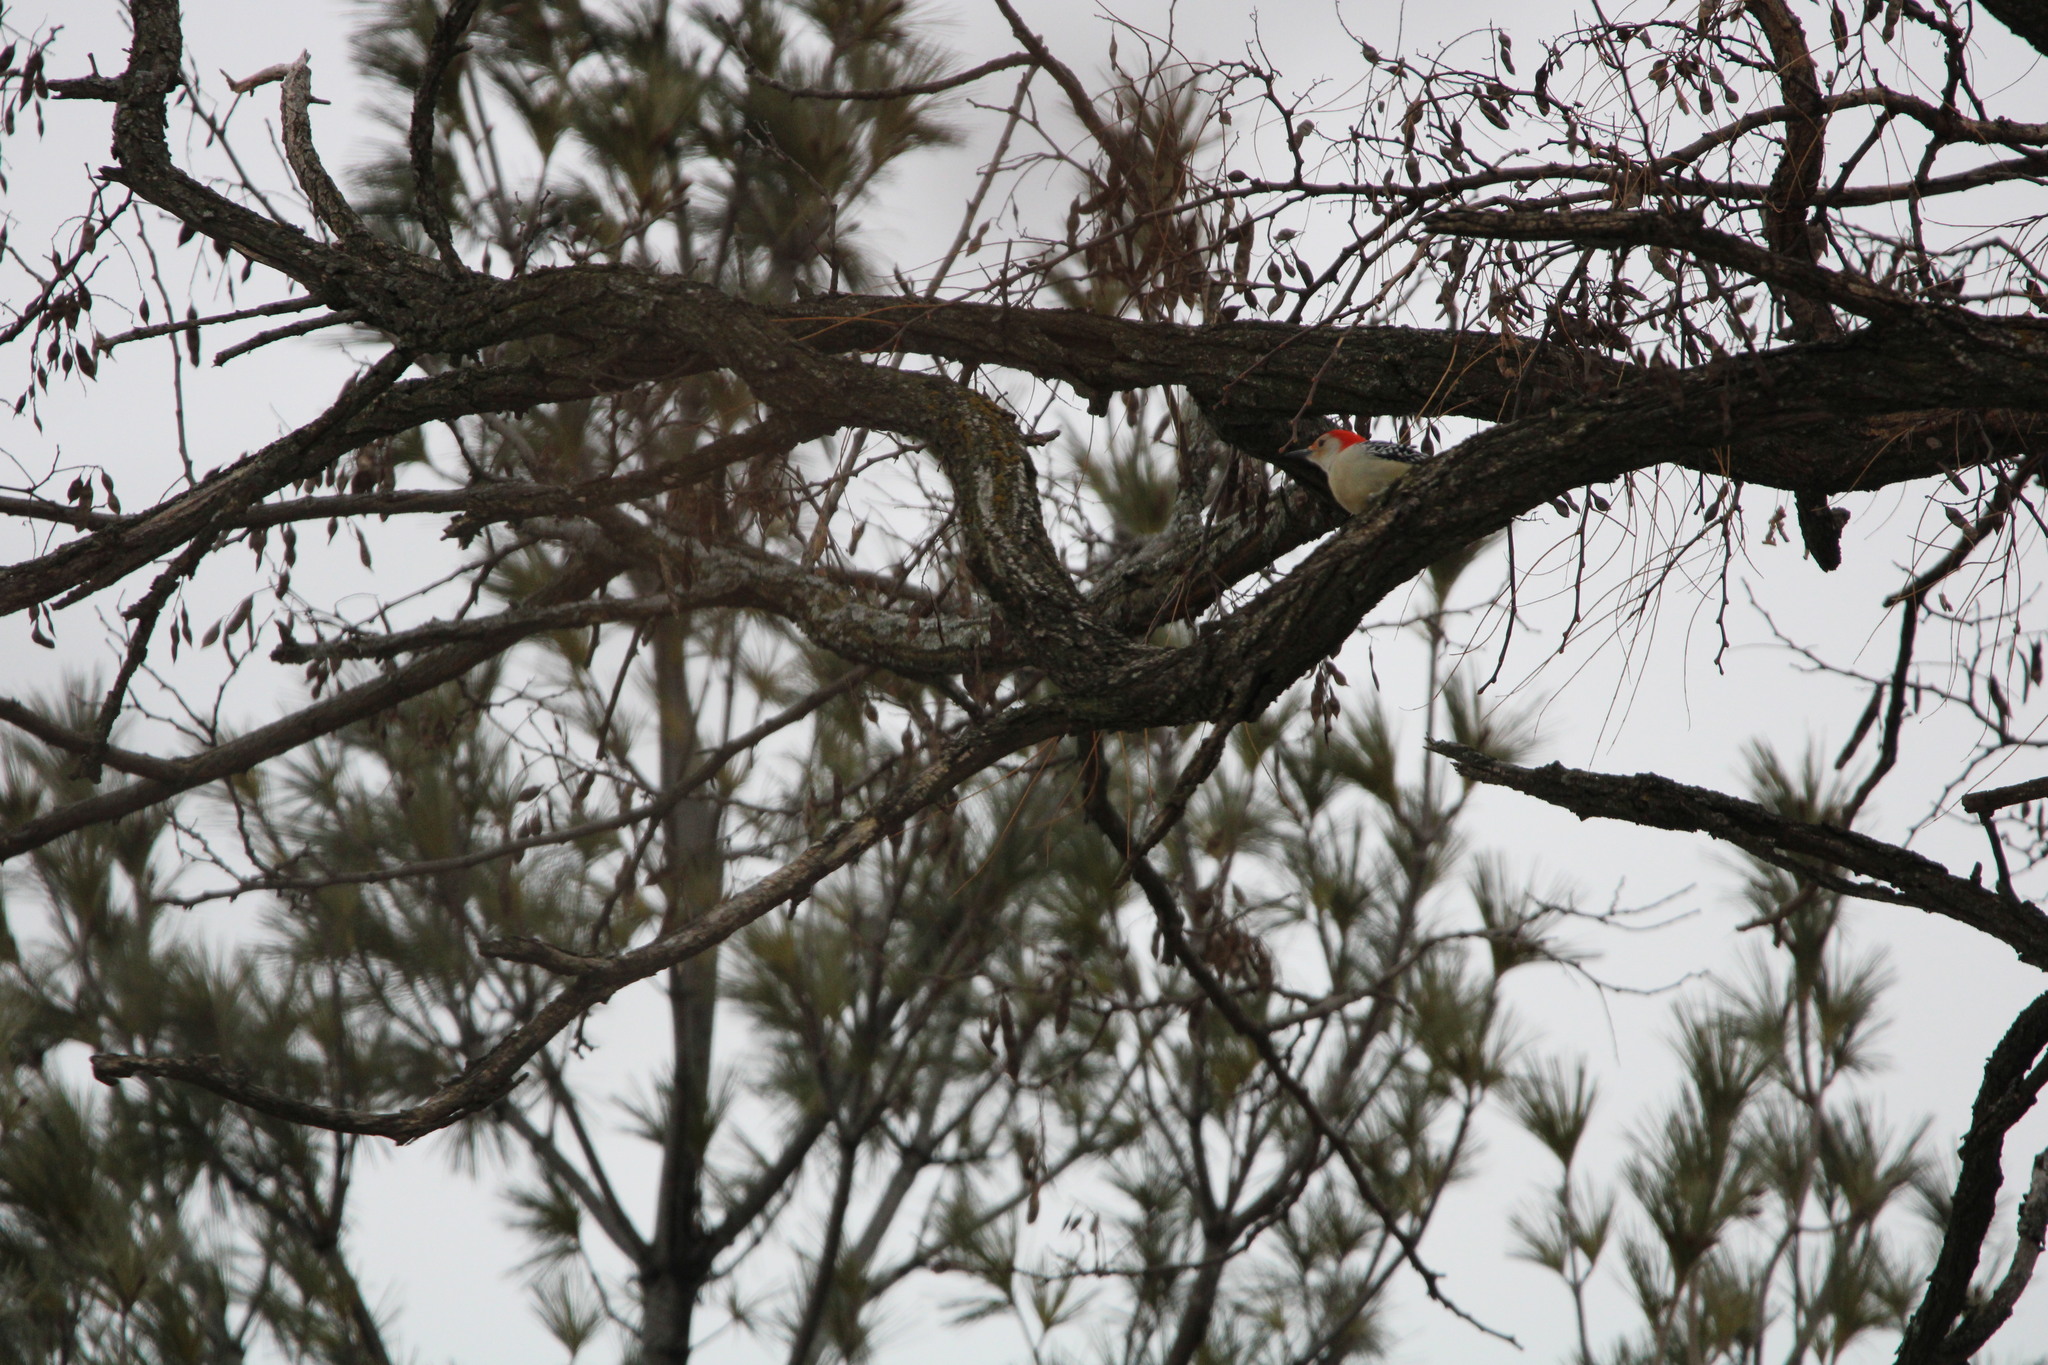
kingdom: Animalia
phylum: Chordata
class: Aves
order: Piciformes
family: Picidae
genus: Melanerpes
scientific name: Melanerpes carolinus
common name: Red-bellied woodpecker
